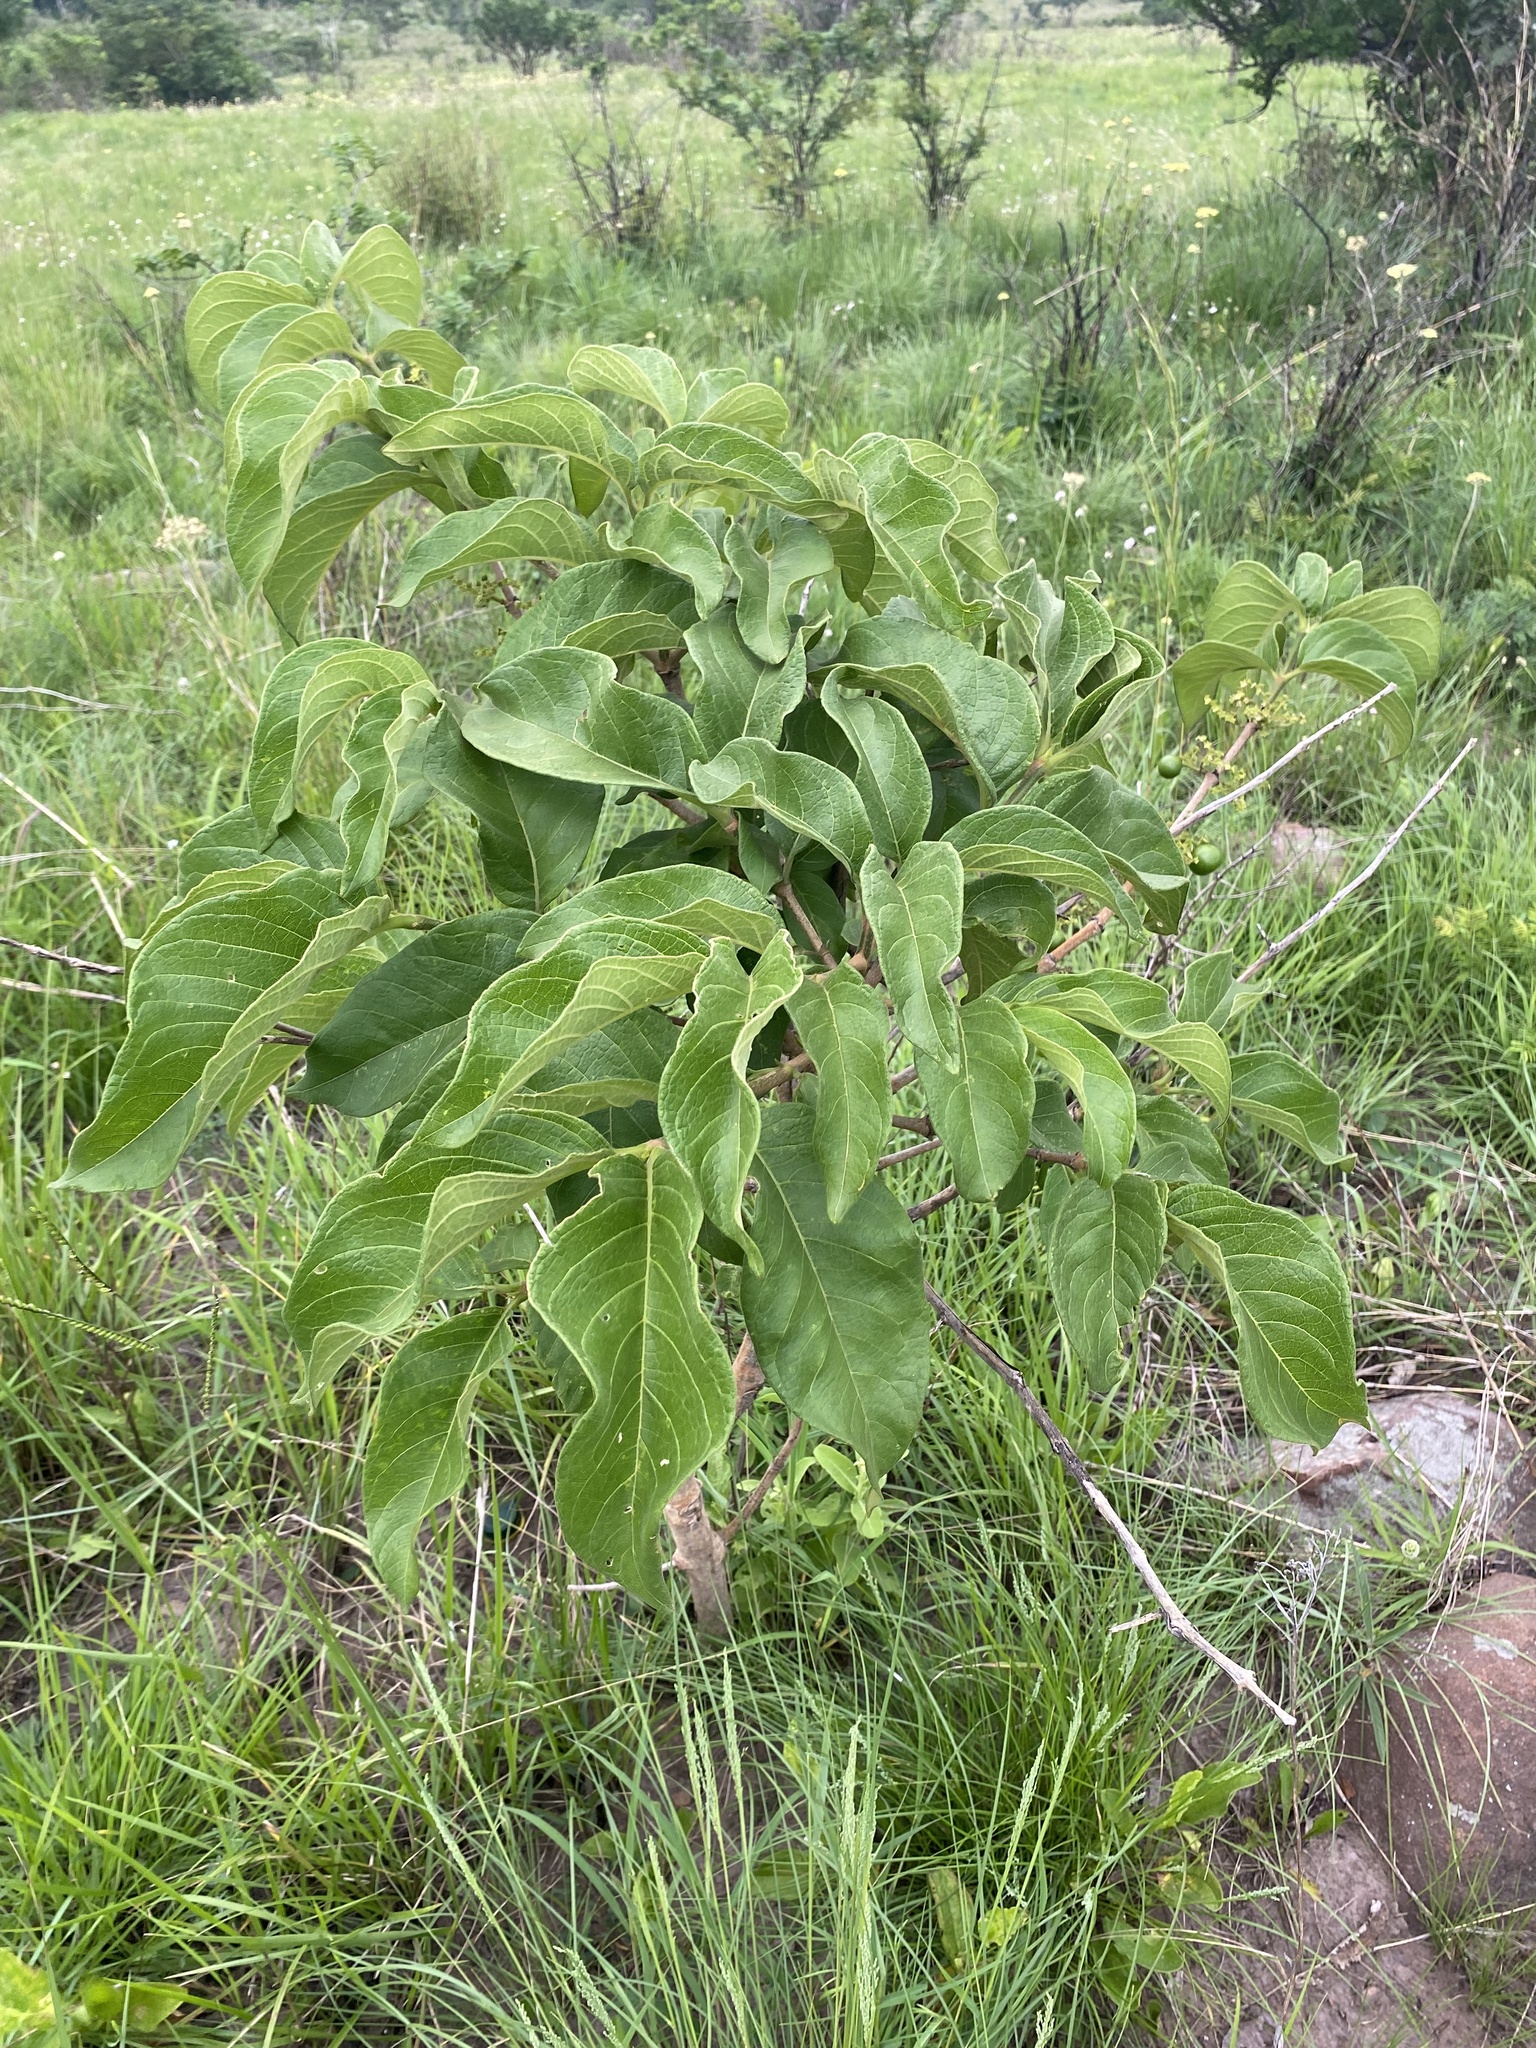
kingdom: Plantae
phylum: Tracheophyta
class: Magnoliopsida
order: Gentianales
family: Rubiaceae
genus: Vangueria
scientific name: Vangueria infausta
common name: Medlar
